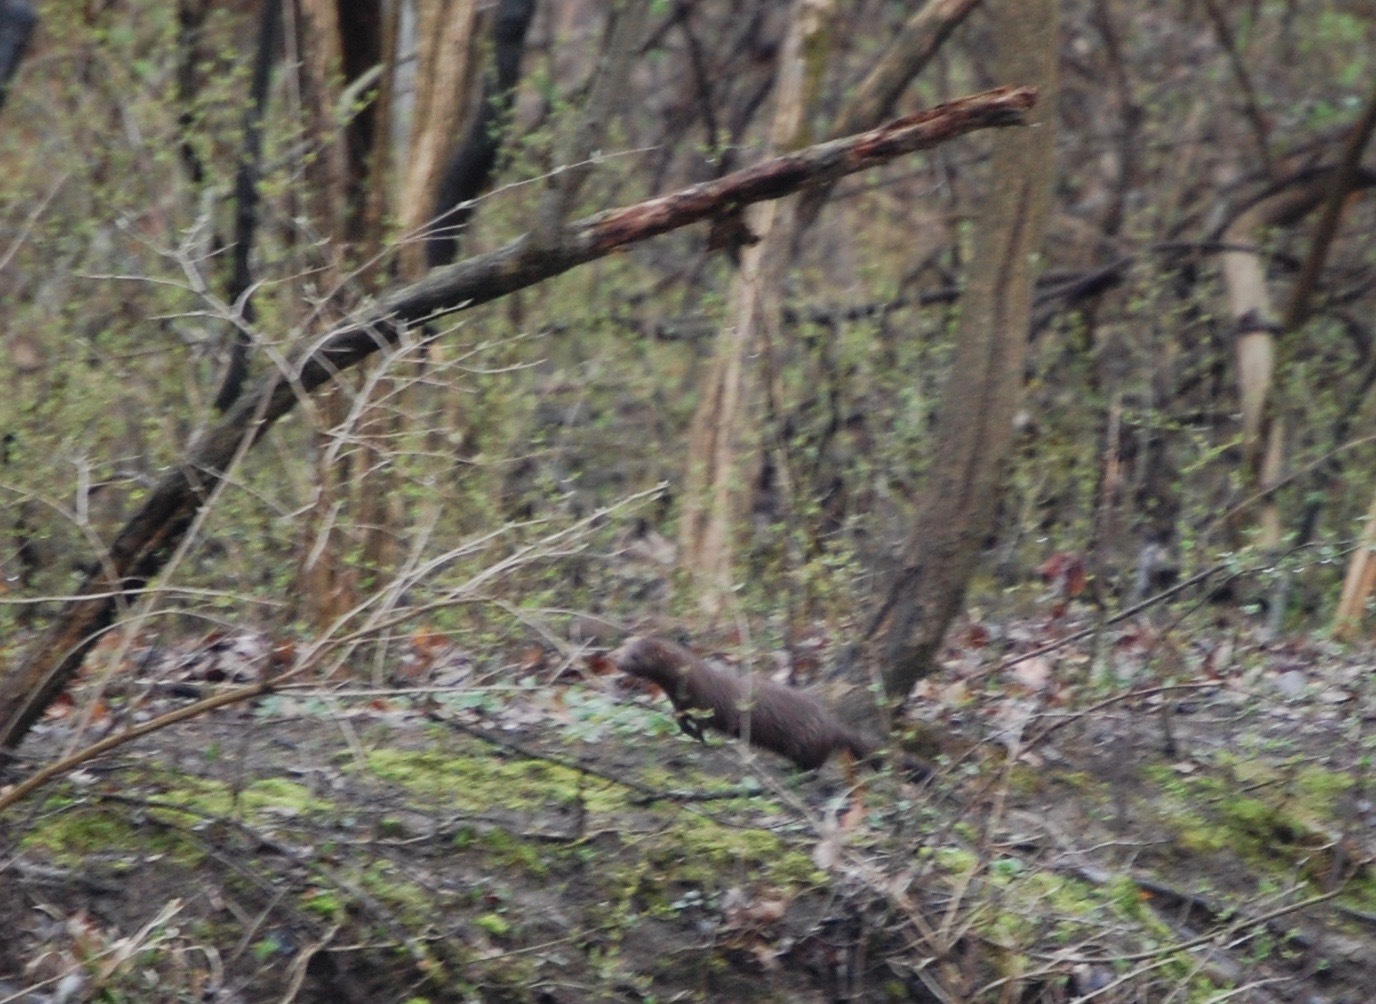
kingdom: Animalia
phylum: Chordata
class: Mammalia
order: Carnivora
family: Mustelidae
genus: Mustela
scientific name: Mustela
